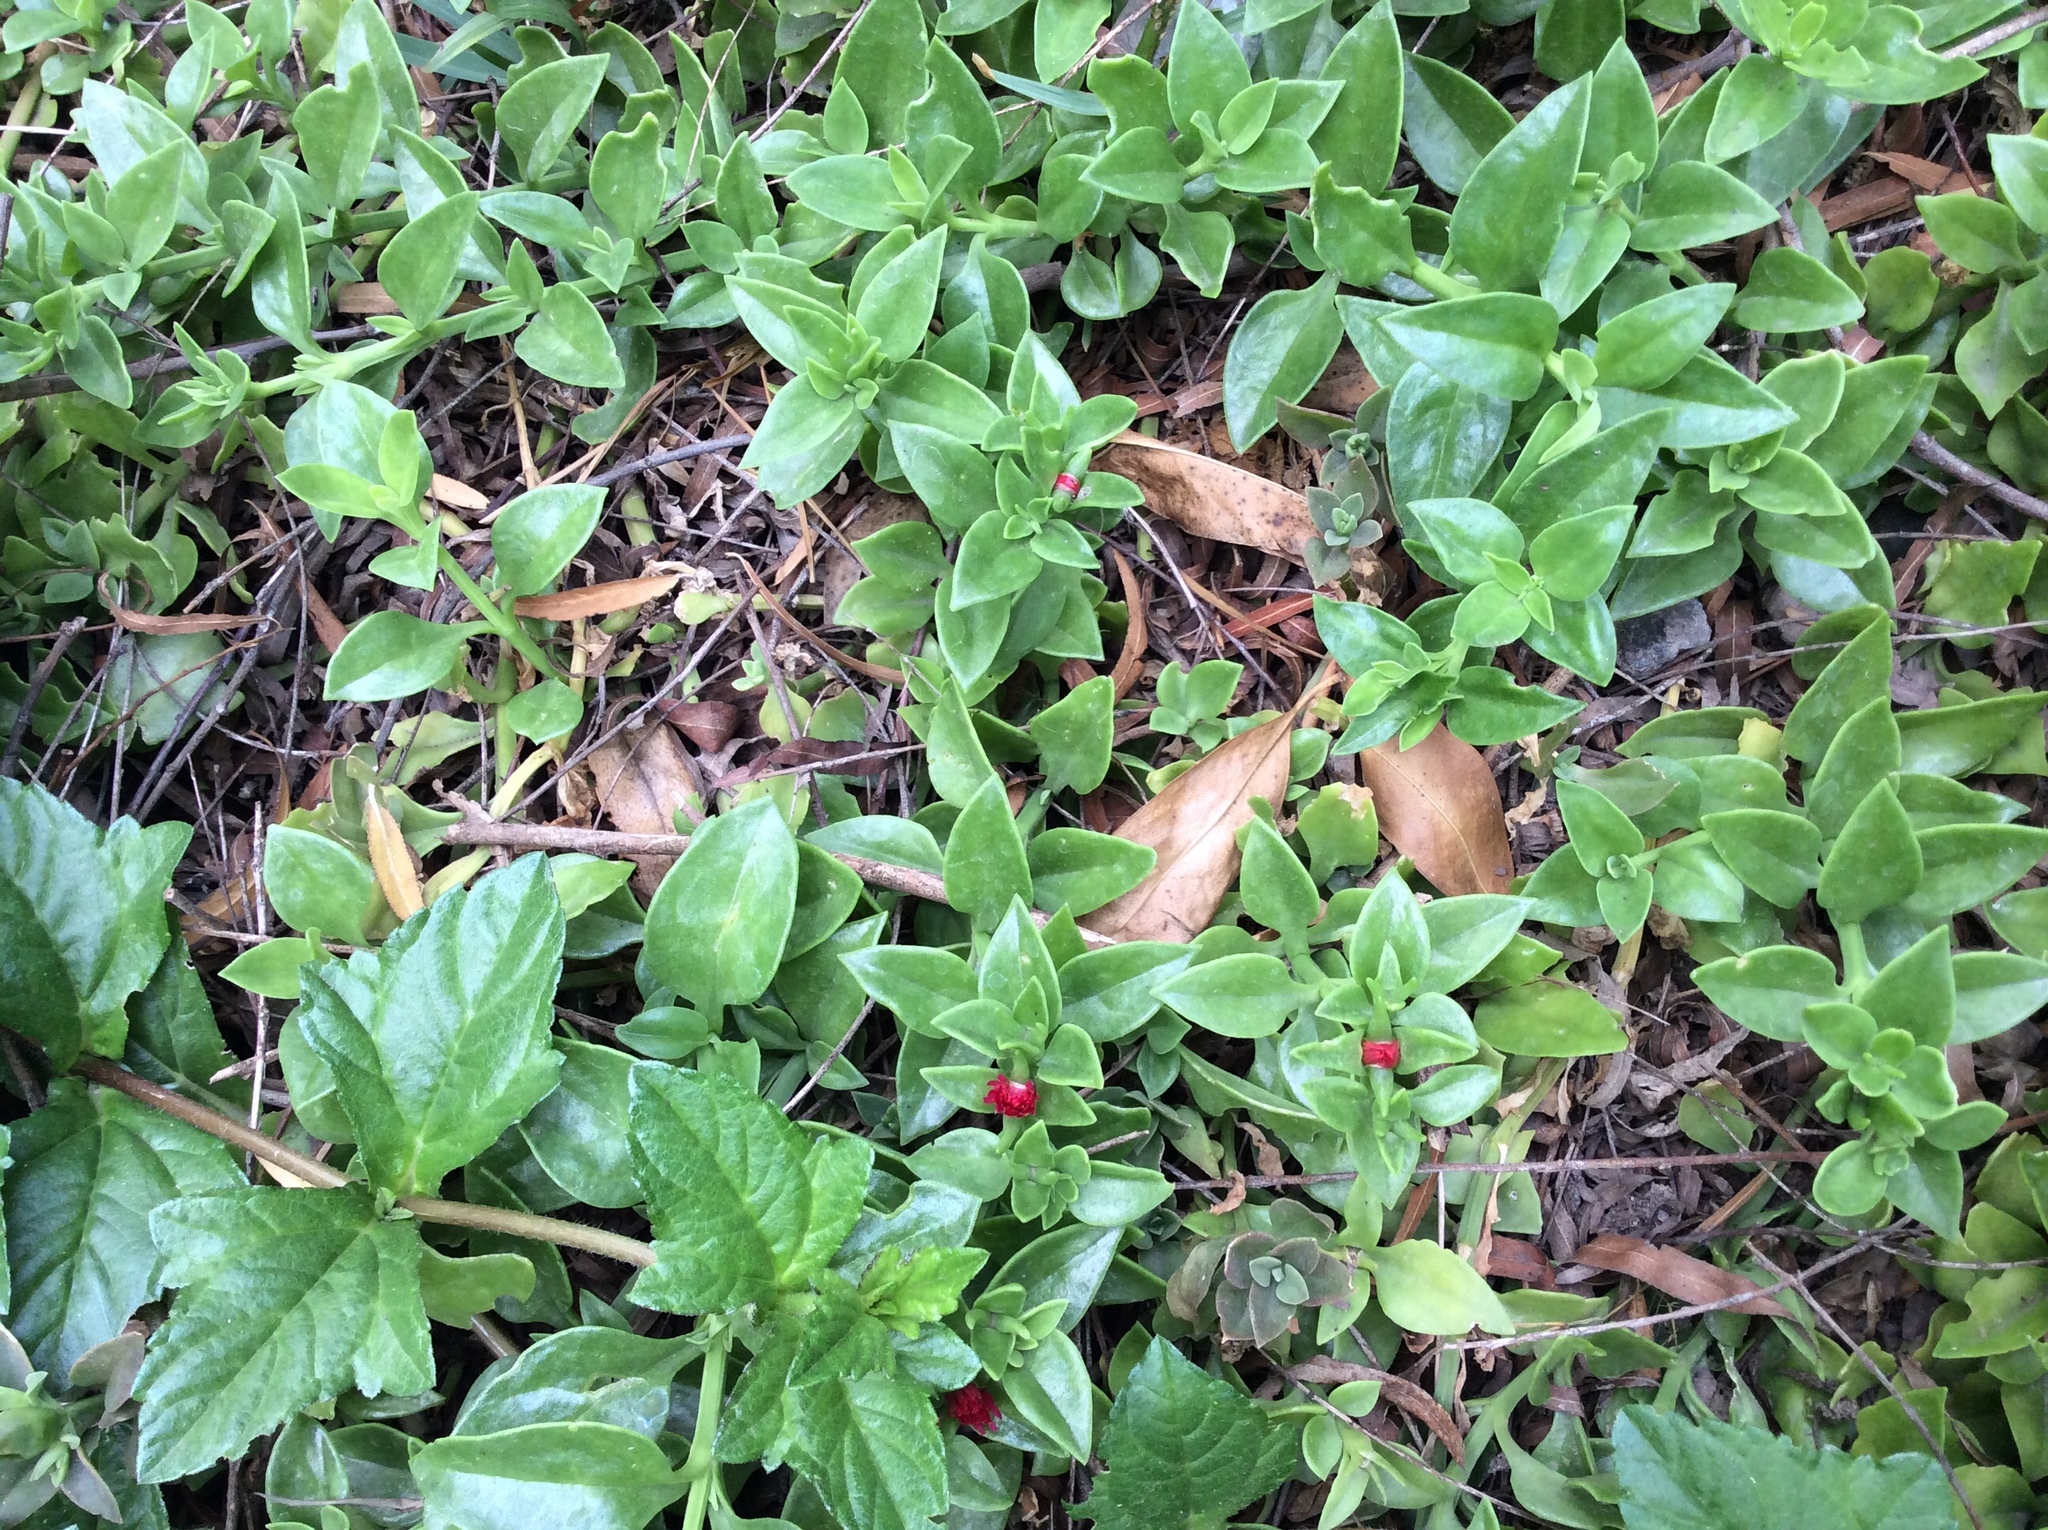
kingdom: Plantae
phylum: Tracheophyta
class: Magnoliopsida
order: Caryophyllales
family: Aizoaceae
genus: Mesembryanthemum
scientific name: Mesembryanthemum cordifolium
